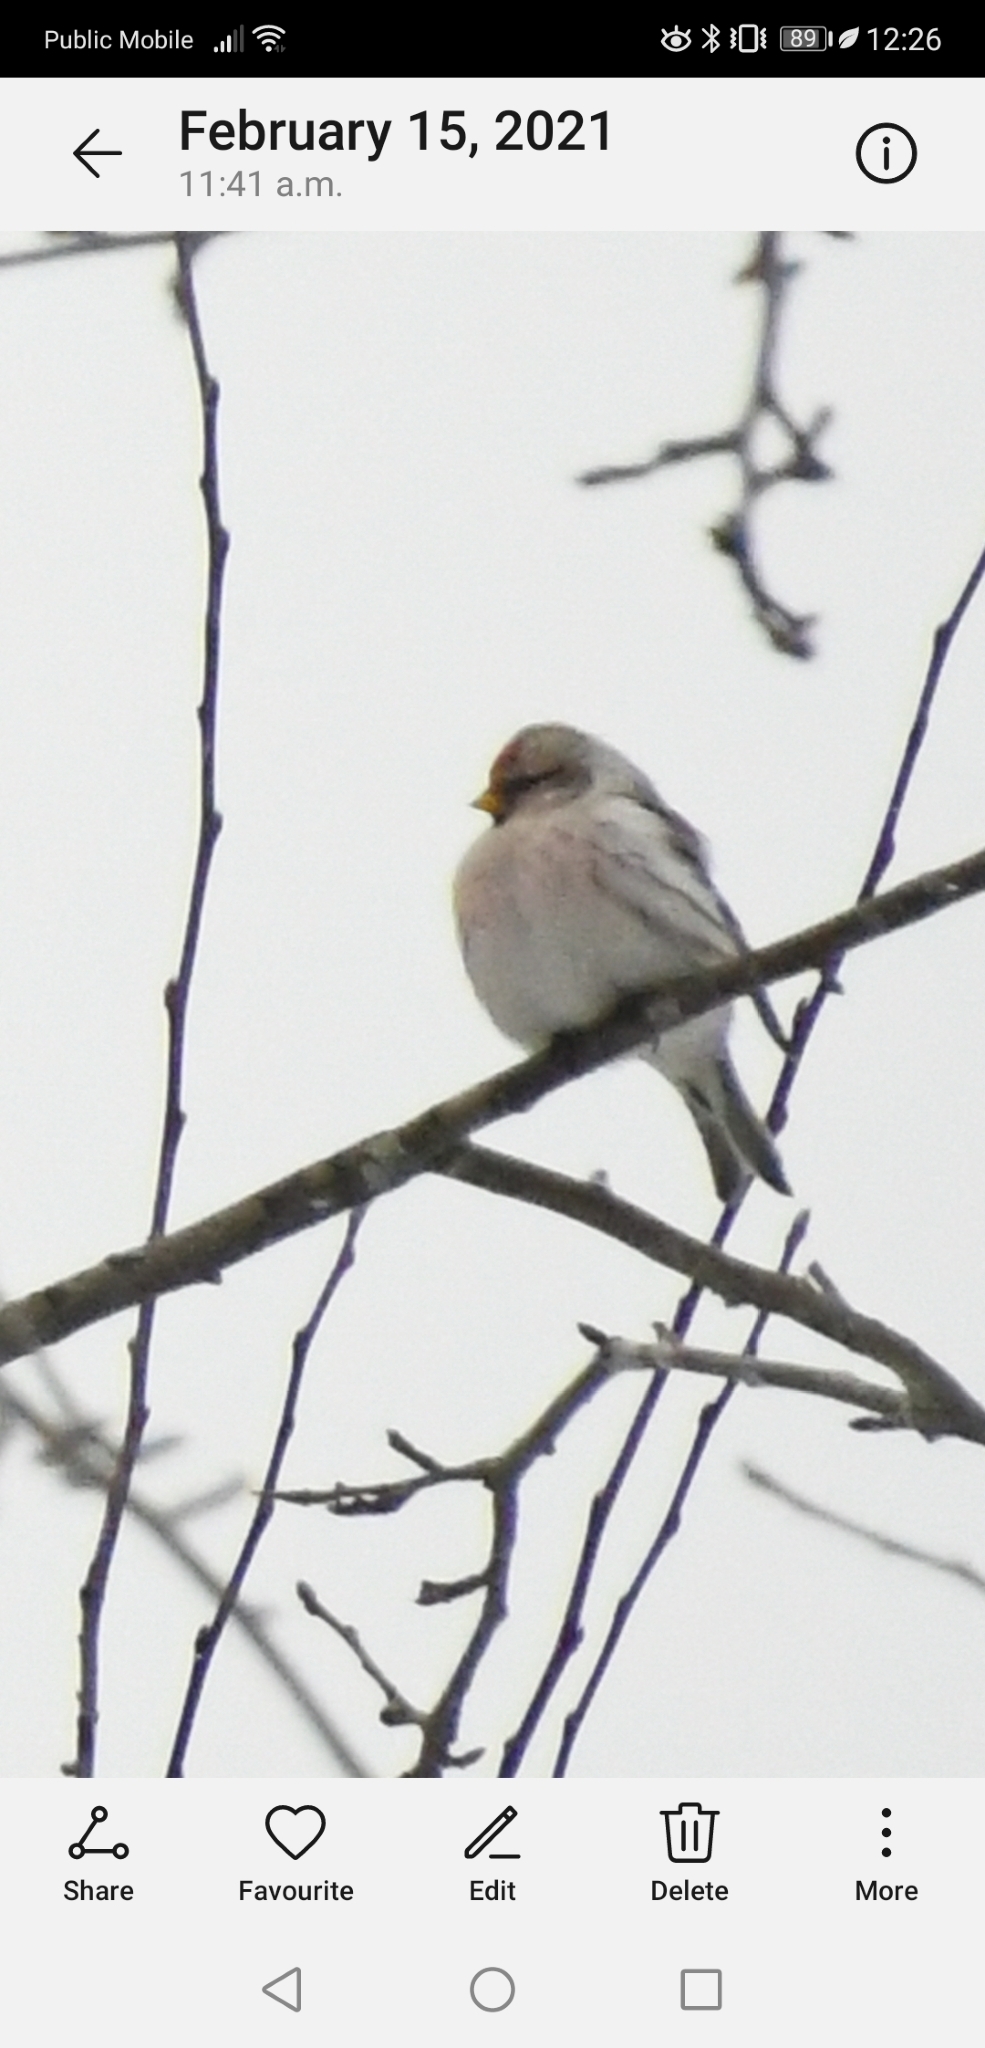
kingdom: Animalia
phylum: Chordata
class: Aves
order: Passeriformes
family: Fringillidae
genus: Acanthis
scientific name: Acanthis hornemanni
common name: Arctic redpoll
